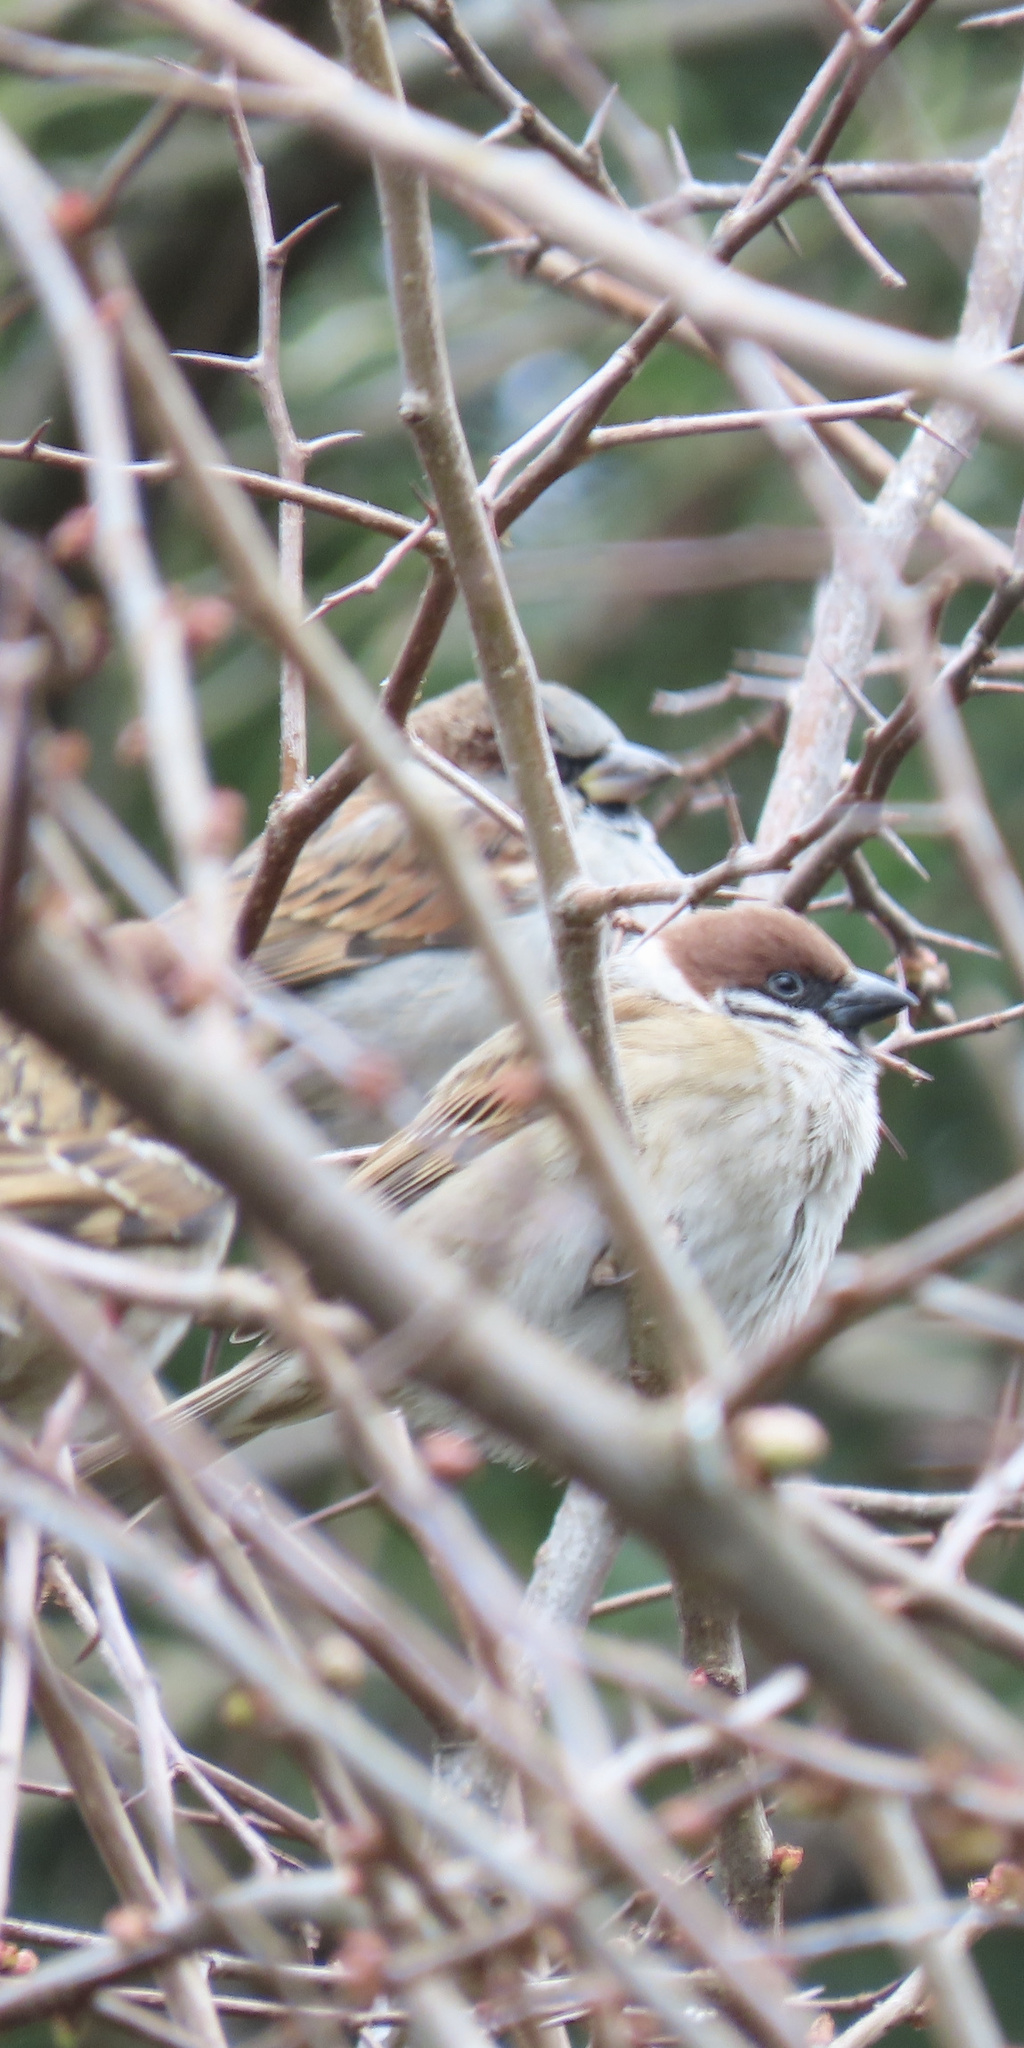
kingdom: Animalia
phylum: Chordata
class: Aves
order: Passeriformes
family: Passeridae
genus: Passer
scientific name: Passer montanus
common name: Eurasian tree sparrow
